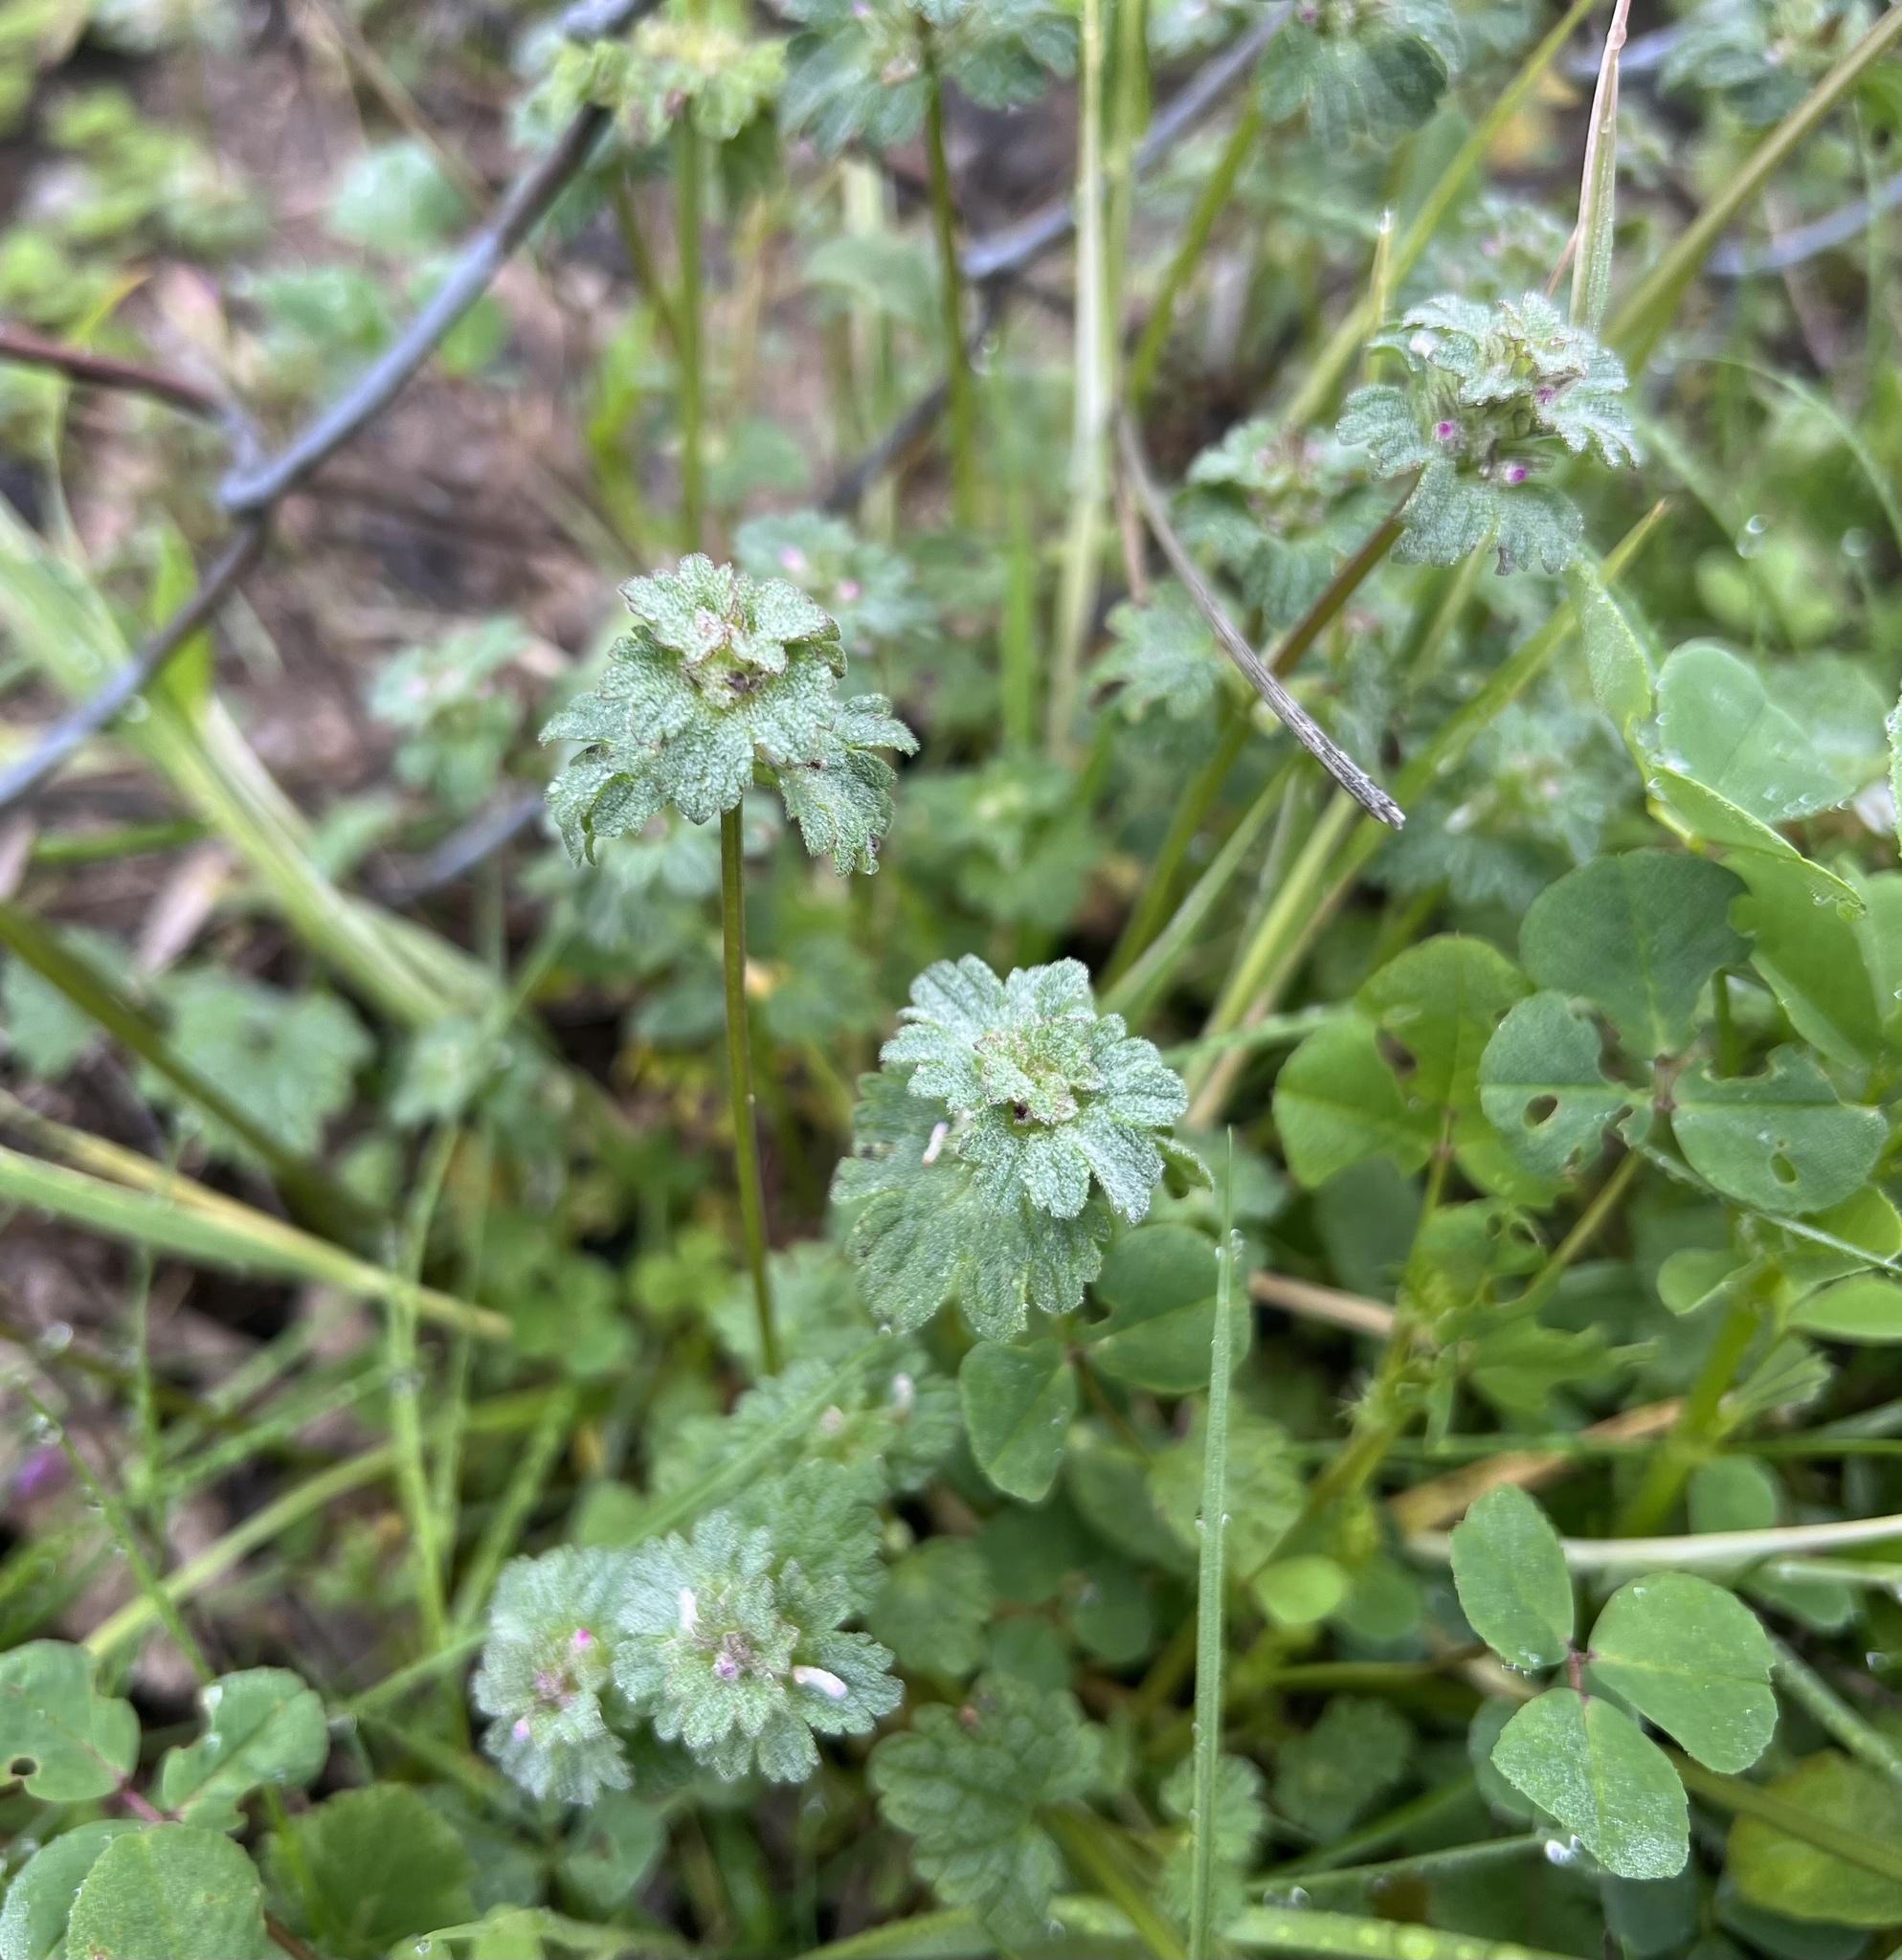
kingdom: Plantae
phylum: Tracheophyta
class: Magnoliopsida
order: Lamiales
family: Lamiaceae
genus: Lamium
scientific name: Lamium amplexicaule
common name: Henbit dead-nettle
